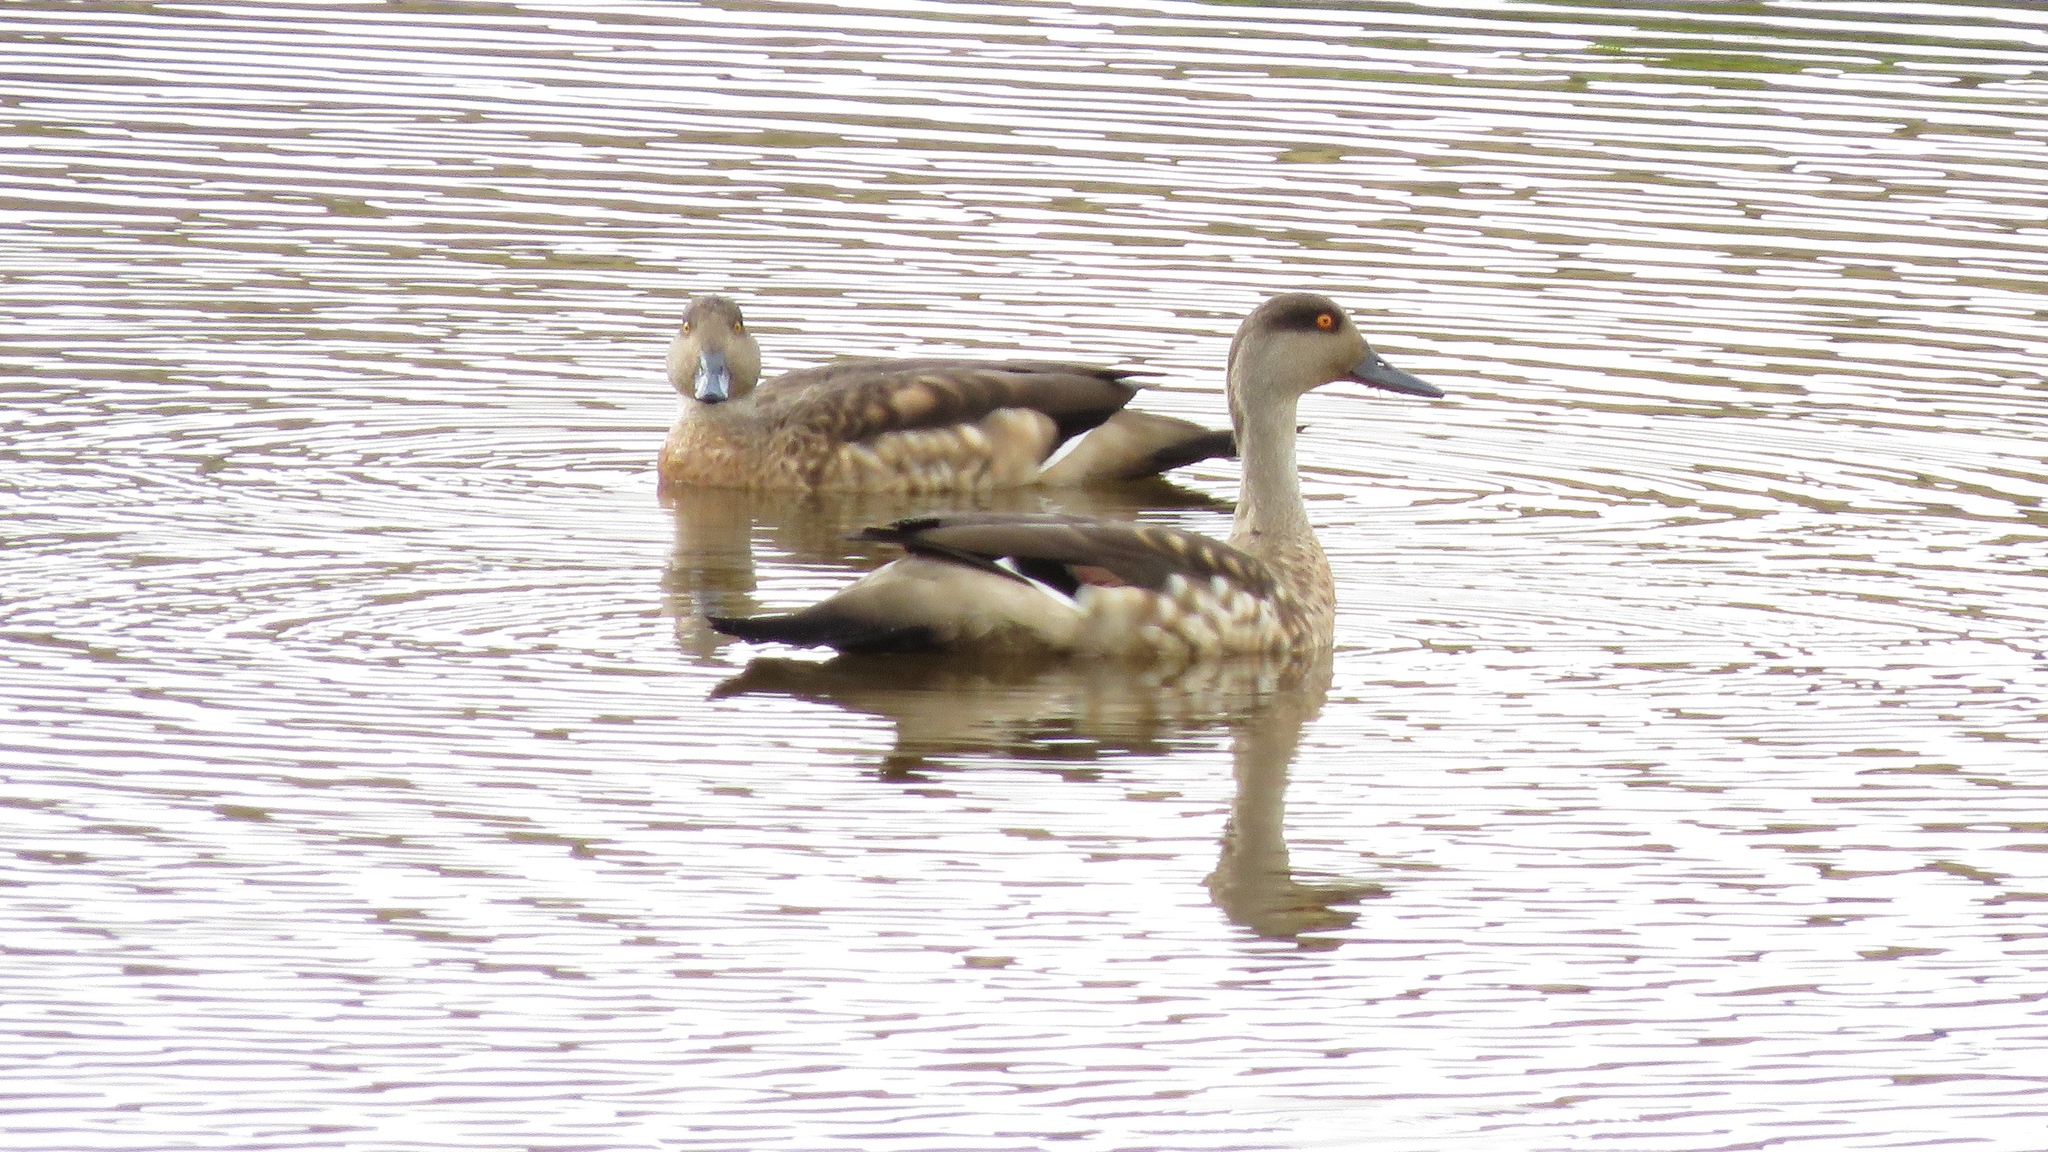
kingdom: Animalia
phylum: Chordata
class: Aves
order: Anseriformes
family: Anatidae
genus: Lophonetta
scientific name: Lophonetta specularioides
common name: Crested duck
